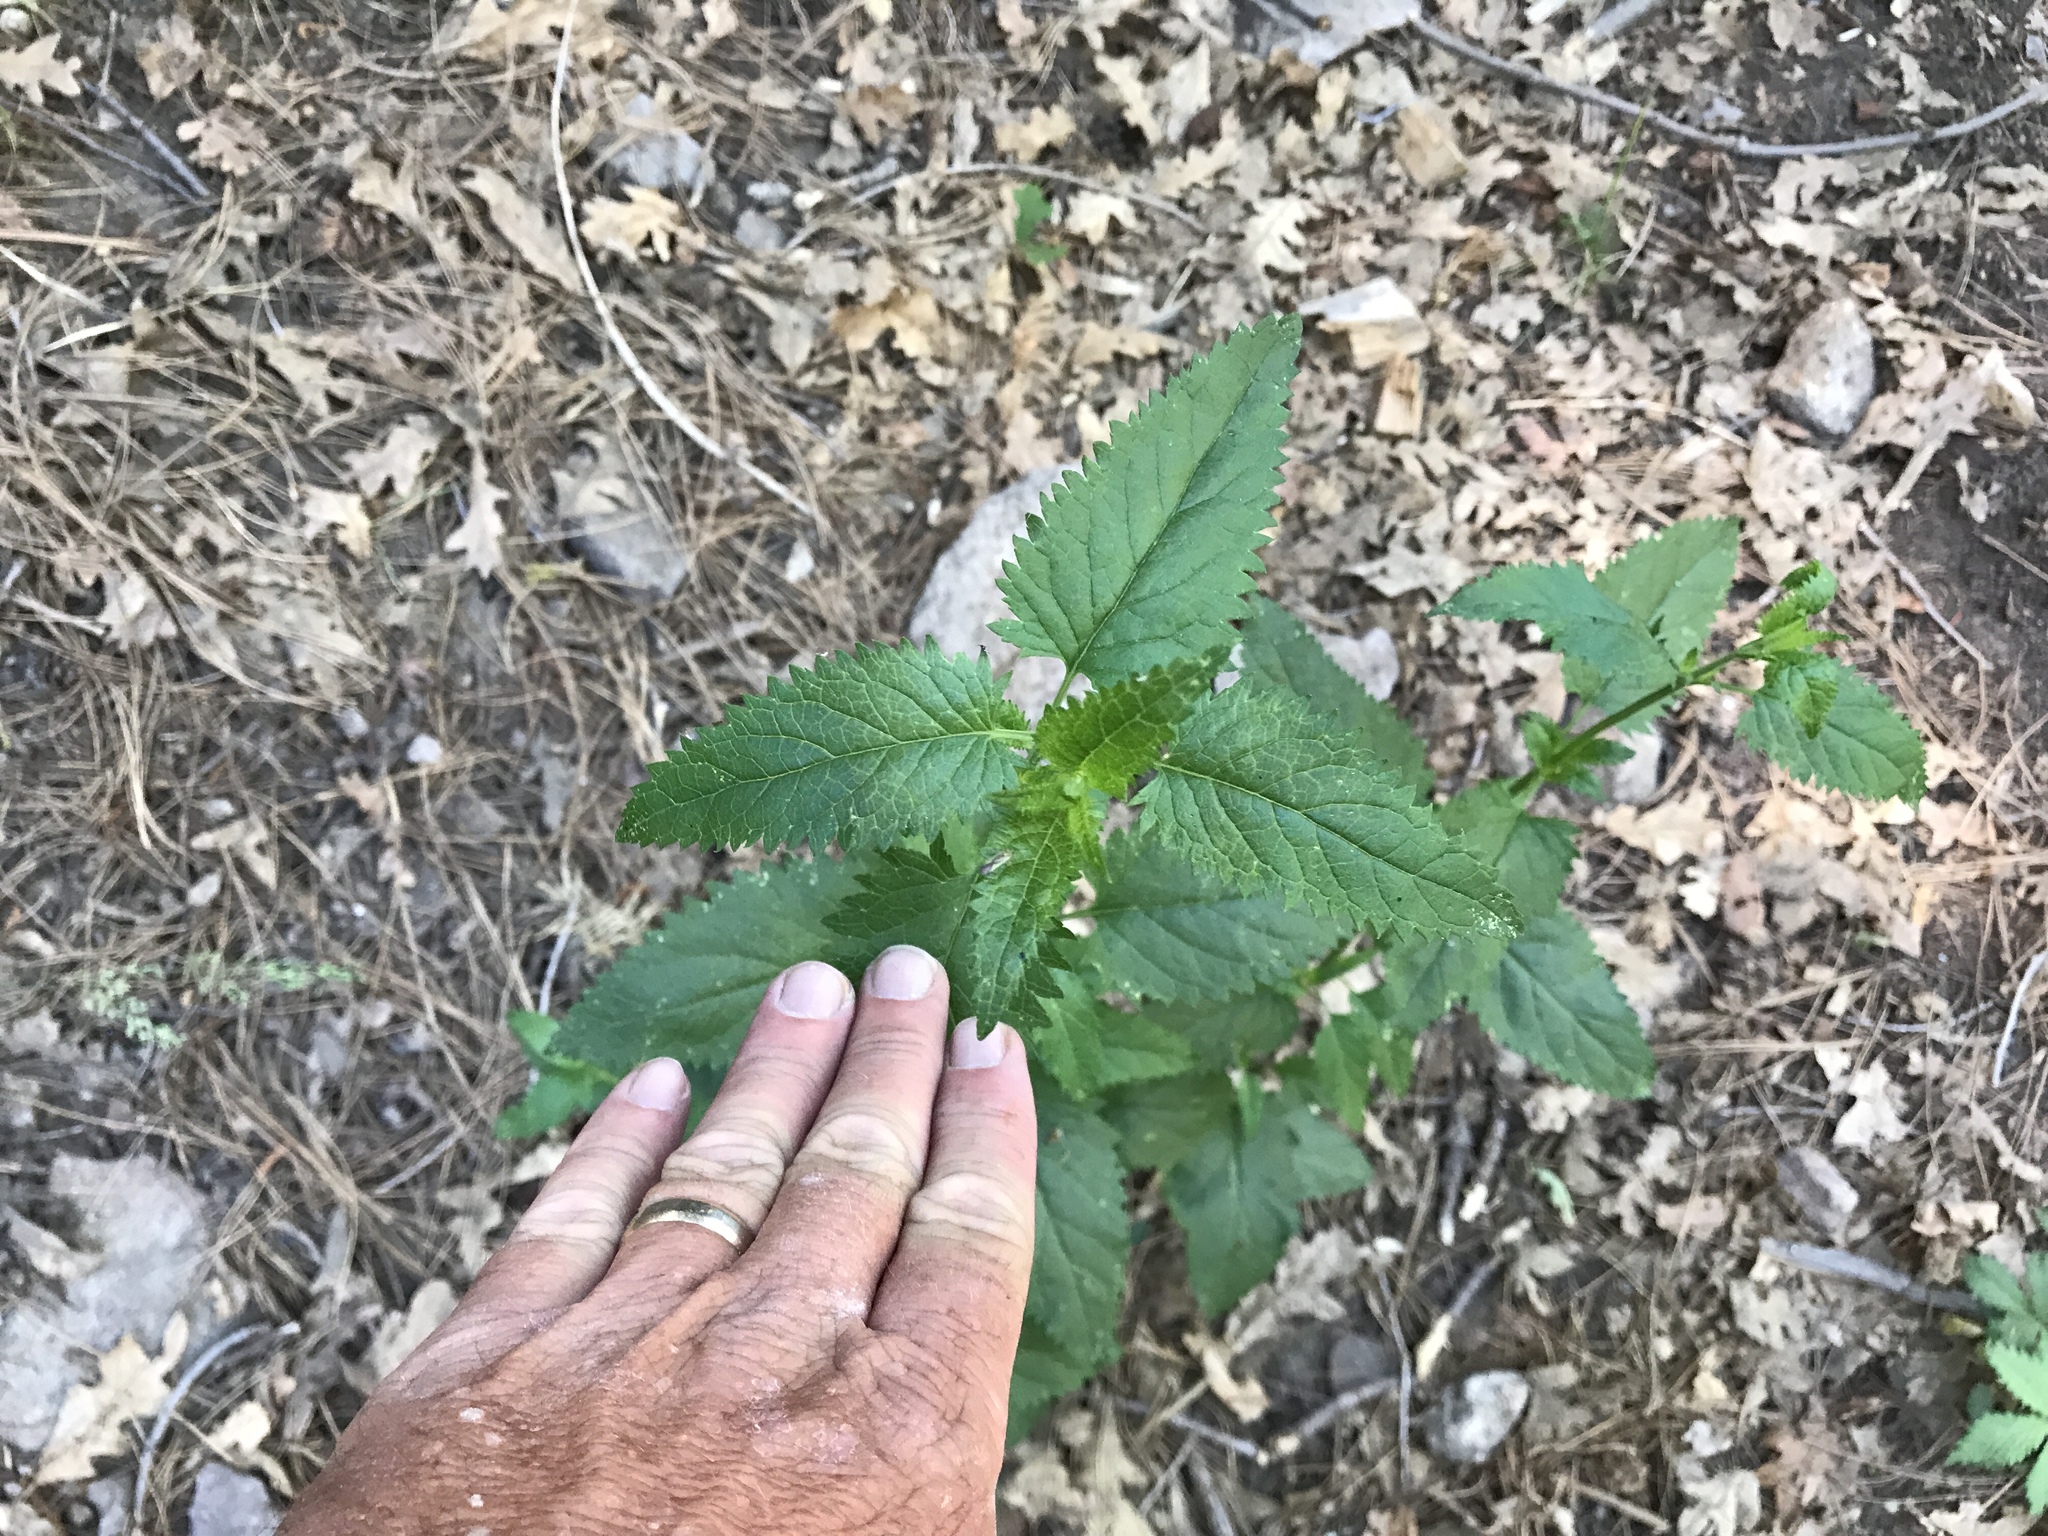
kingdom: Plantae
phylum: Tracheophyta
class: Magnoliopsida
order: Lamiales
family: Scrophulariaceae
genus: Scrophularia
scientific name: Scrophularia parviflora
